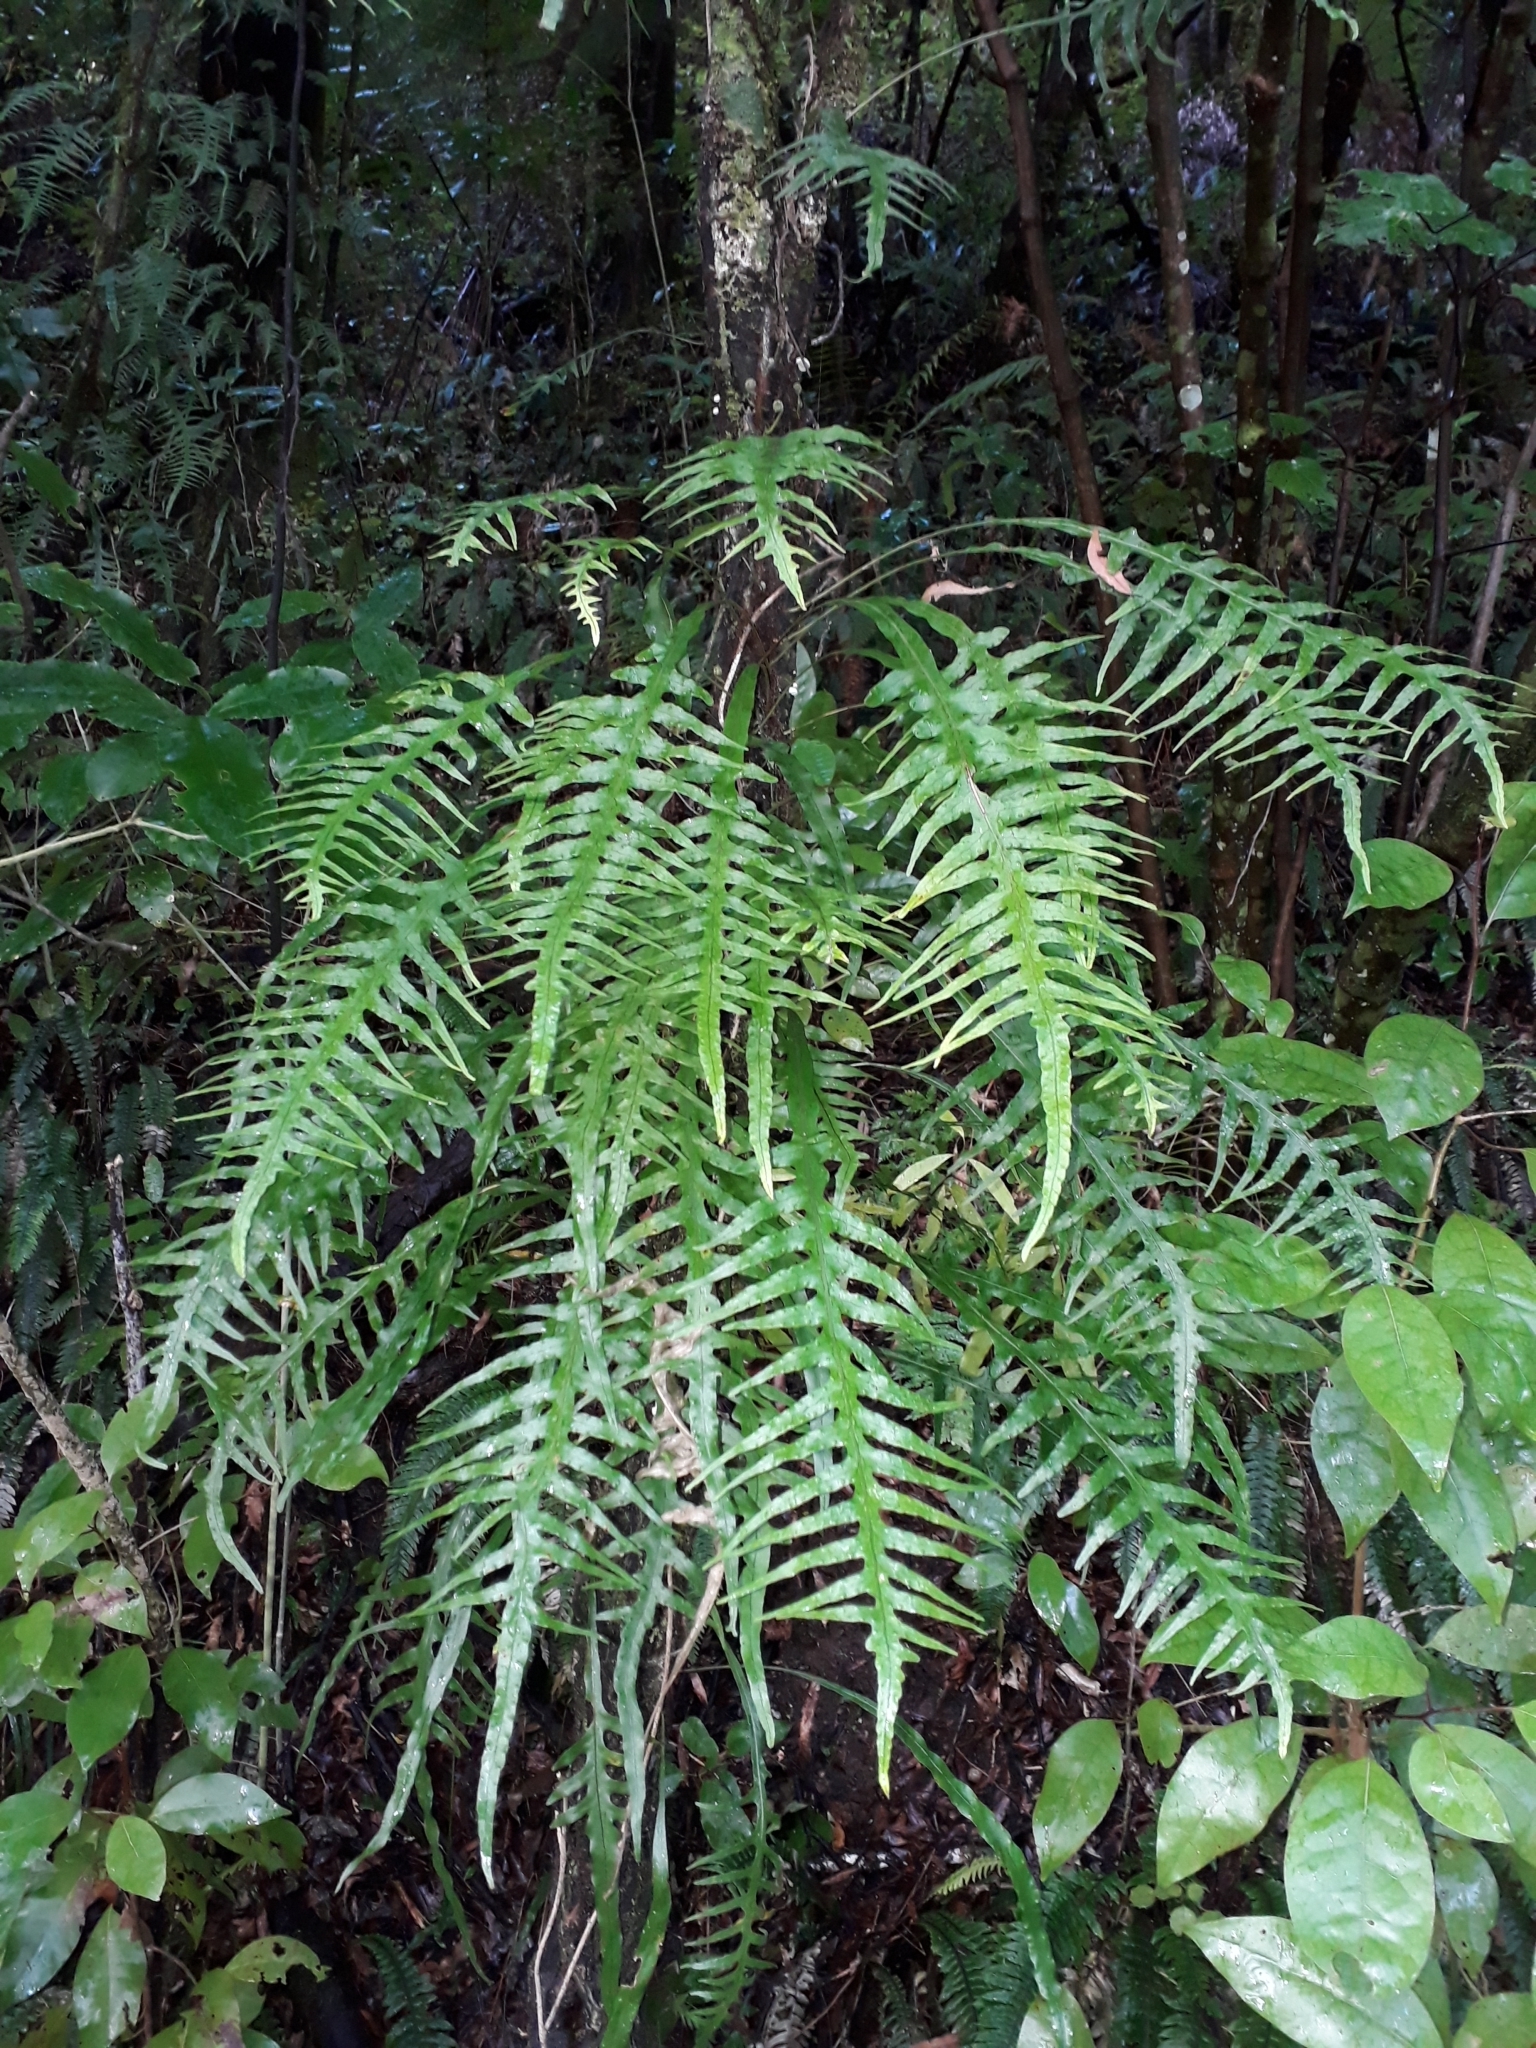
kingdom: Plantae
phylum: Tracheophyta
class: Polypodiopsida
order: Polypodiales
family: Polypodiaceae
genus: Lecanopteris
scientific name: Lecanopteris scandens
